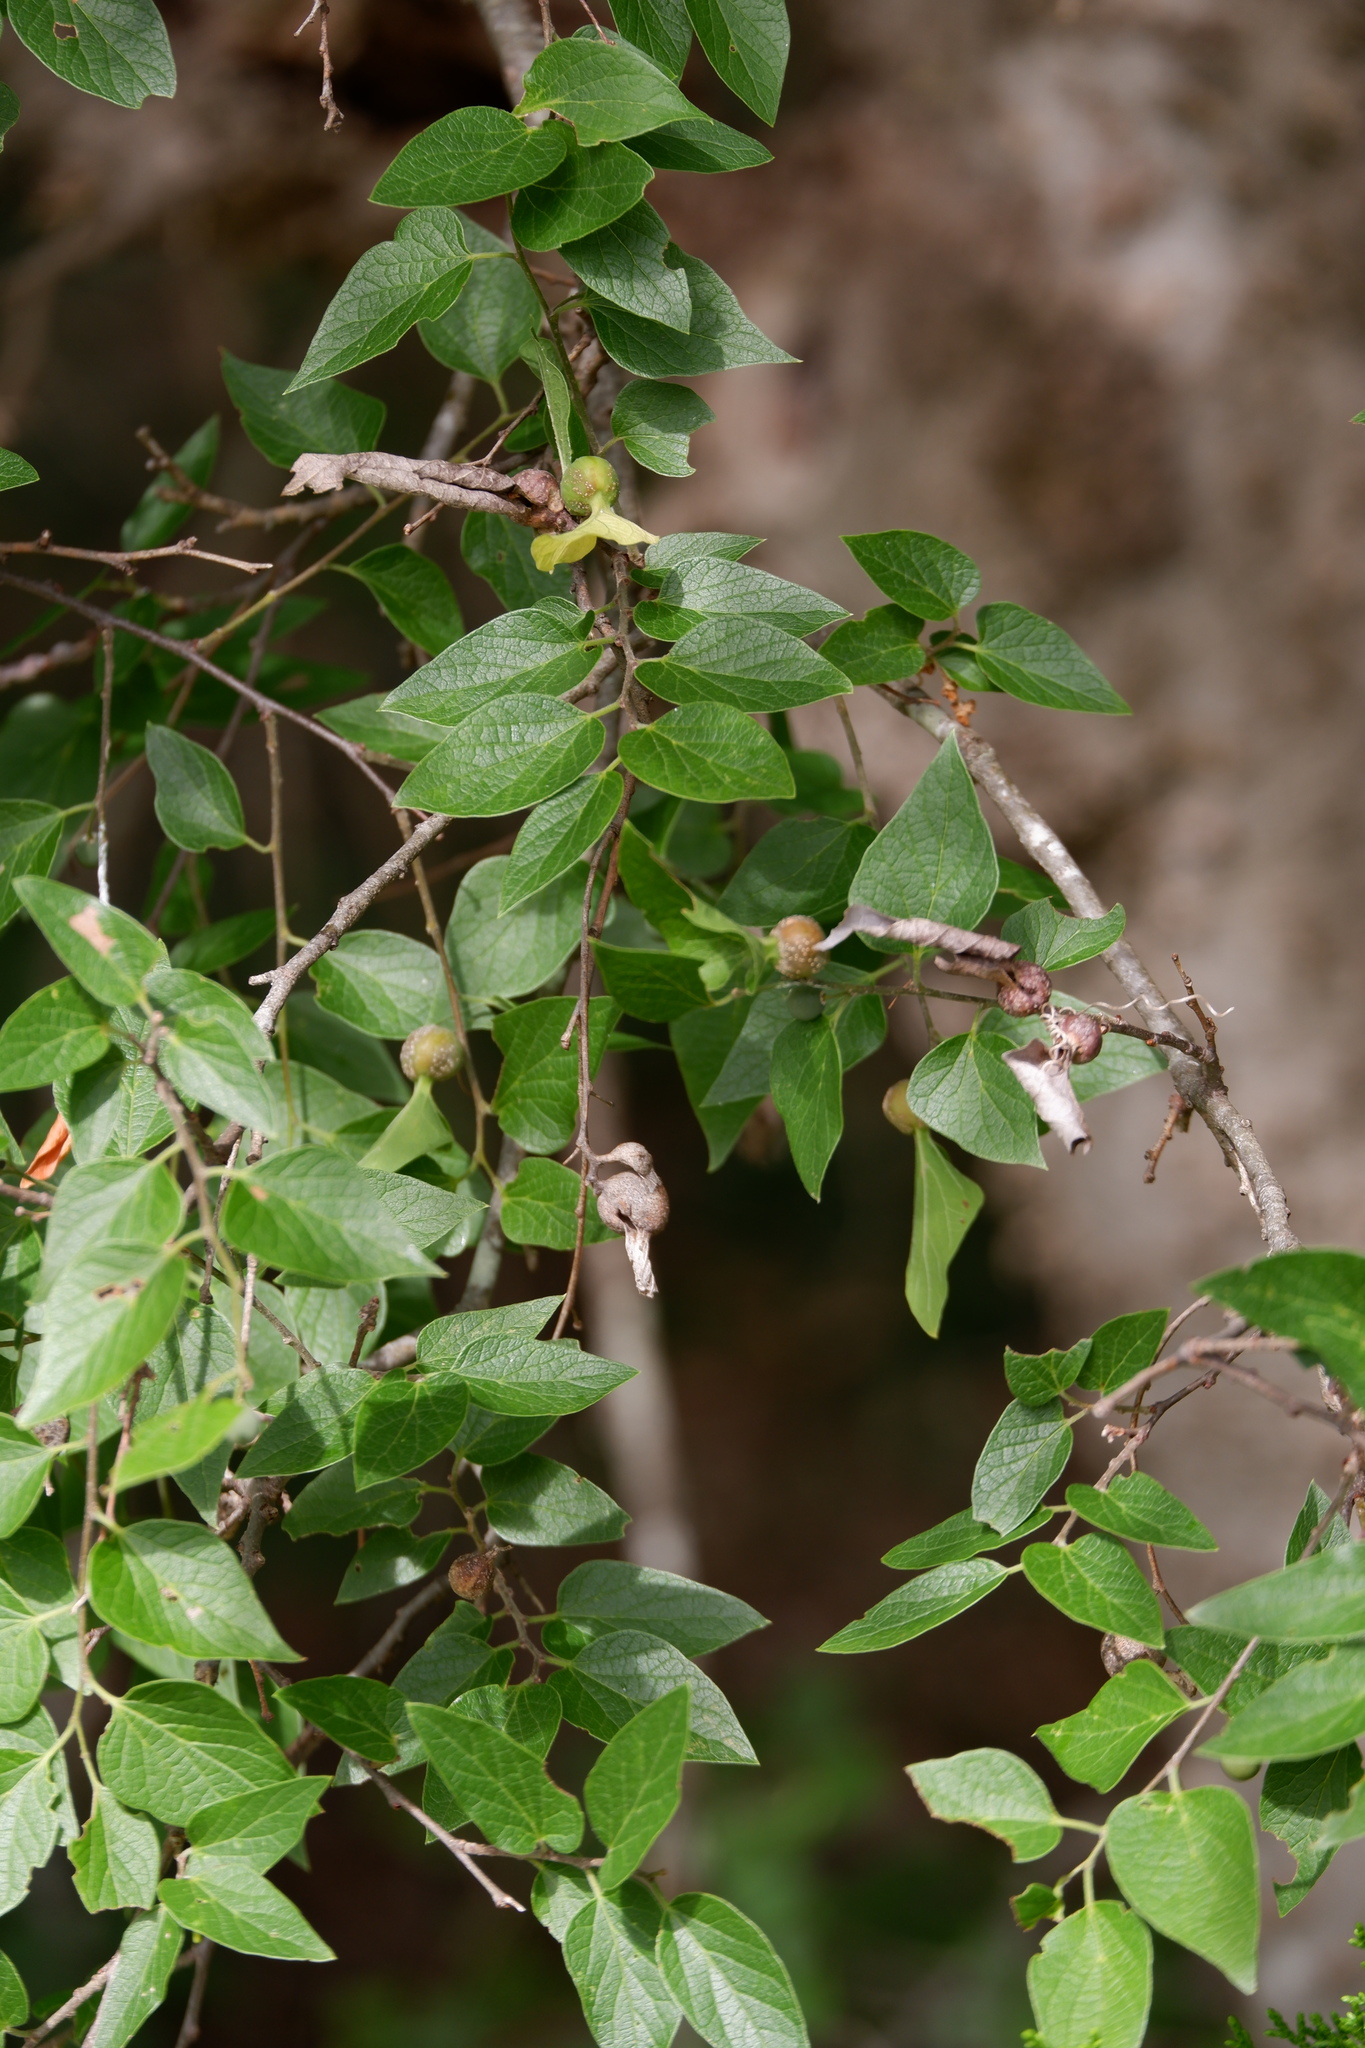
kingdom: Plantae
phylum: Tracheophyta
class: Magnoliopsida
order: Rosales
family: Cannabaceae
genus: Celtis
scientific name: Celtis reticulata
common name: Netleaf hackberry
